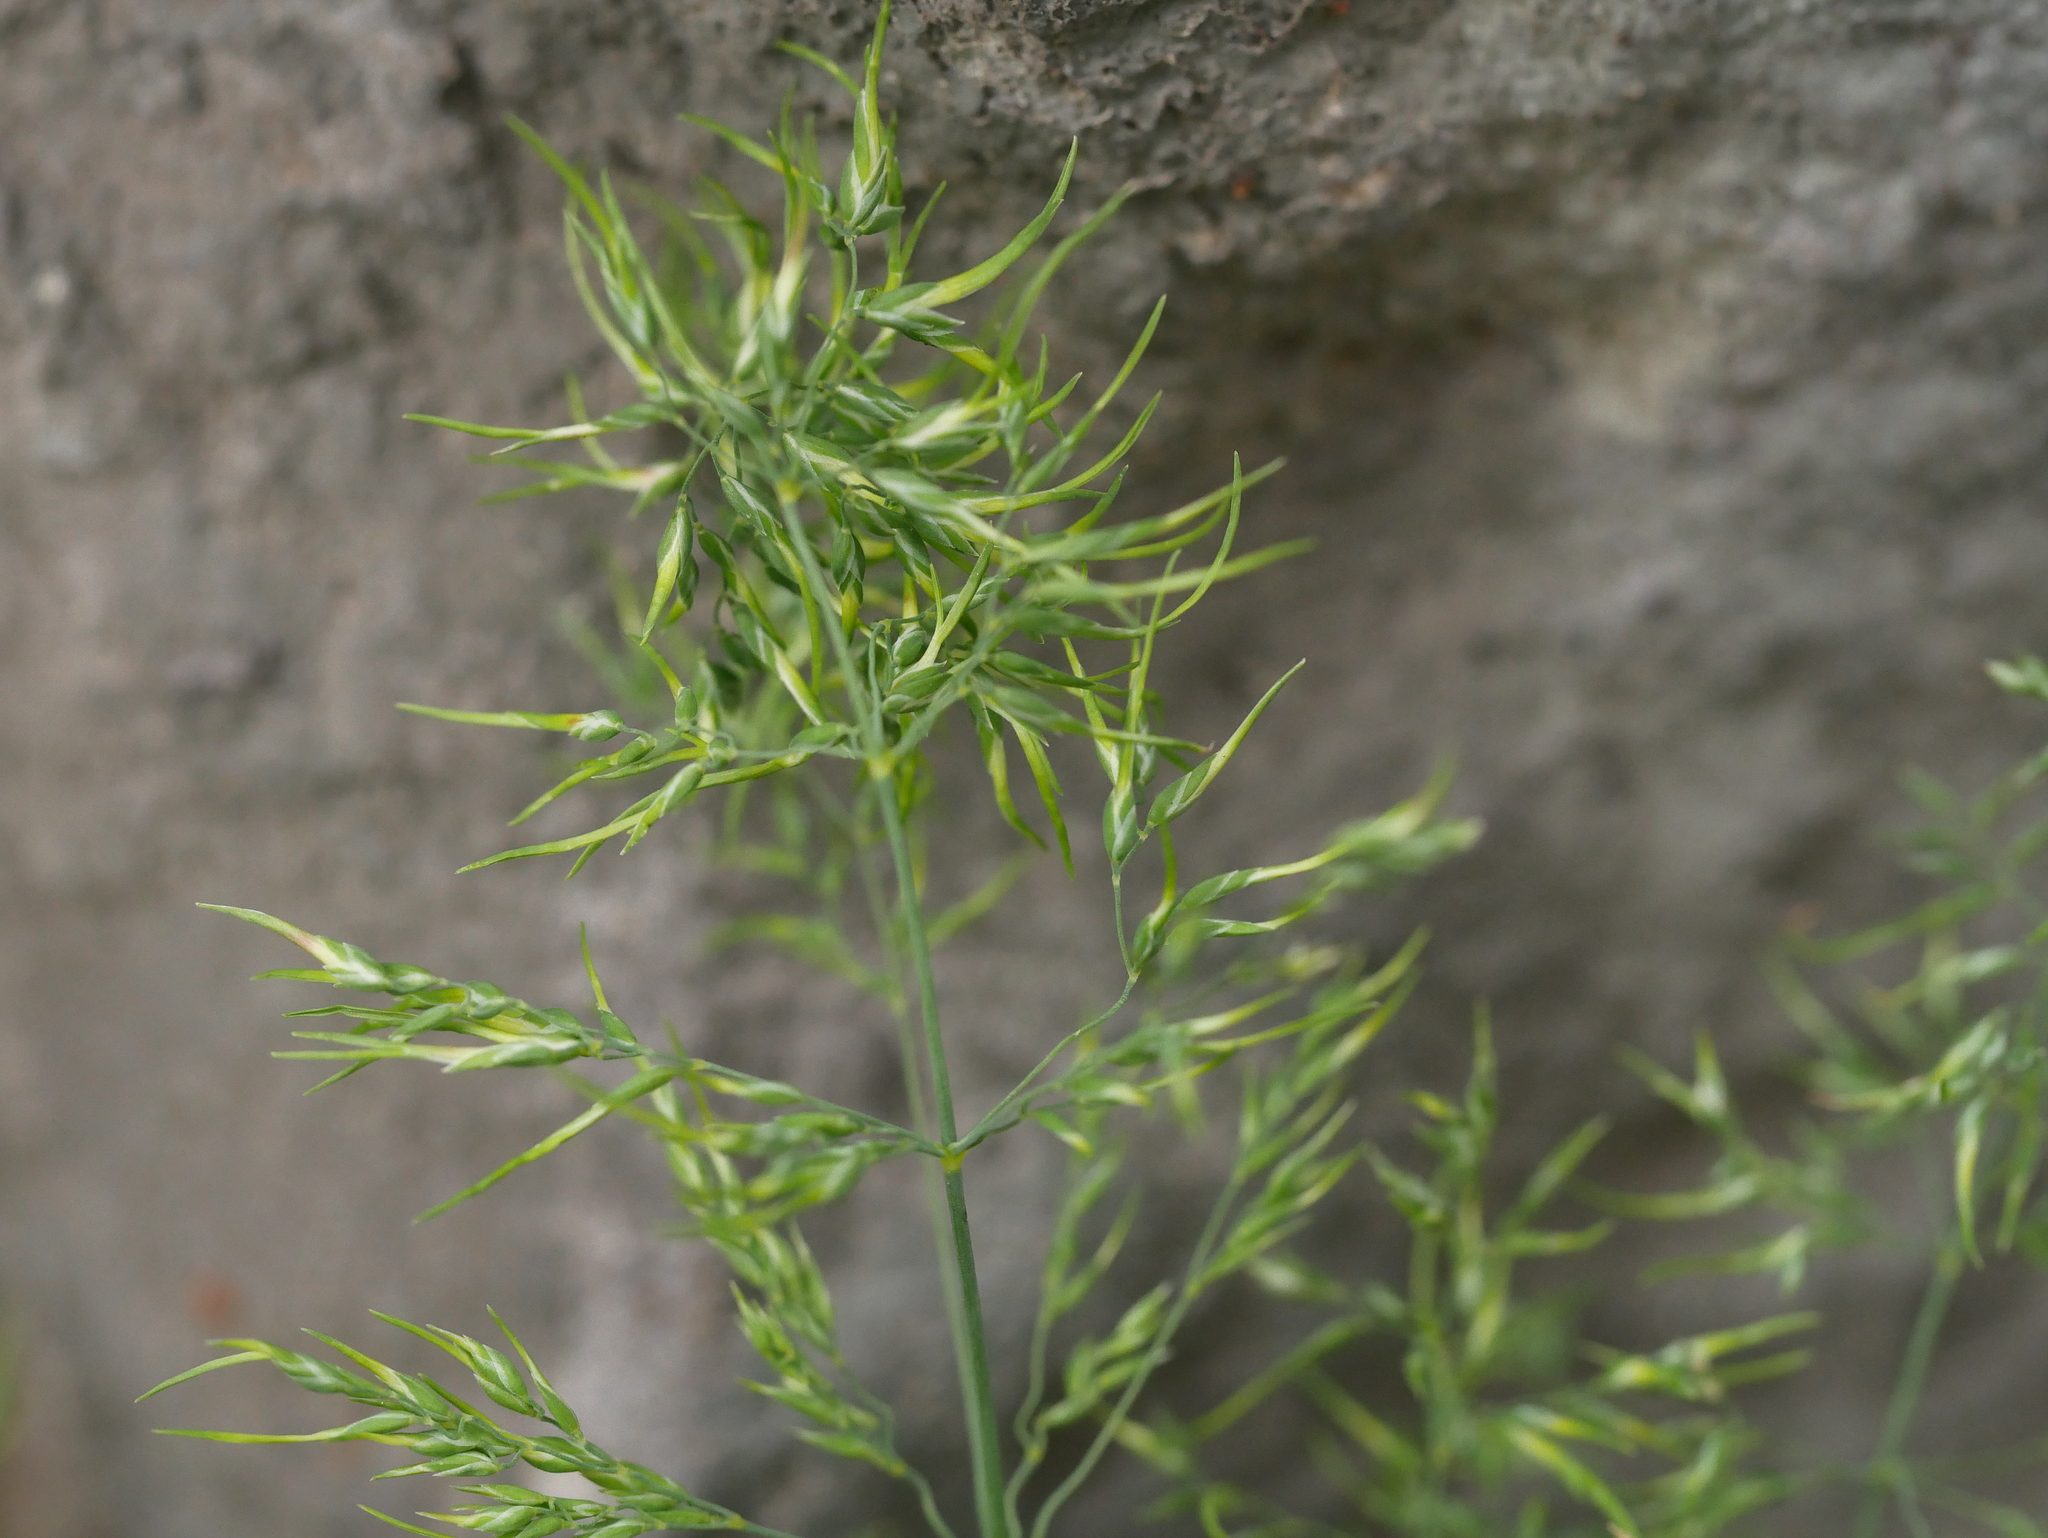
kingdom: Plantae
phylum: Tracheophyta
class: Liliopsida
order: Poales
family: Poaceae
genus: Poa
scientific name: Poa bulbosa
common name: Bulbous bluegrass
